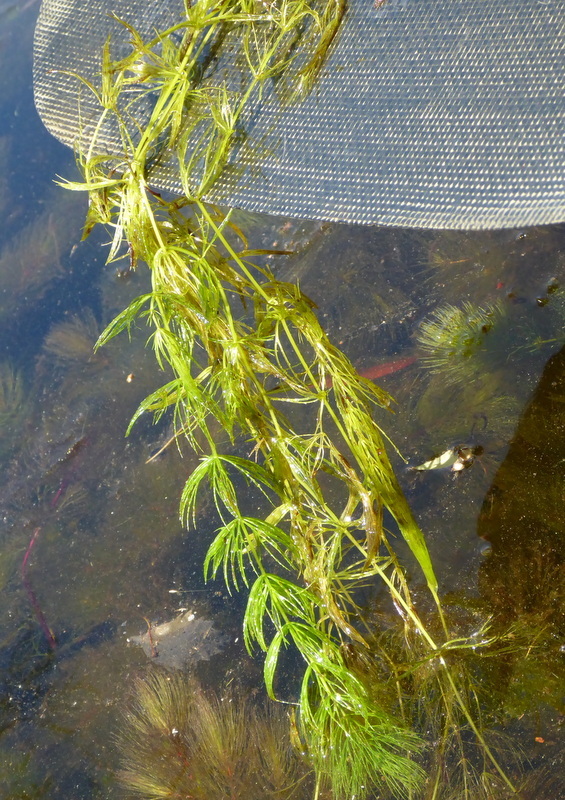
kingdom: Plantae
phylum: Tracheophyta
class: Magnoliopsida
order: Ceratophyllales
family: Ceratophyllaceae
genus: Ceratophyllum
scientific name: Ceratophyllum demersum
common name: Rigid hornwort
